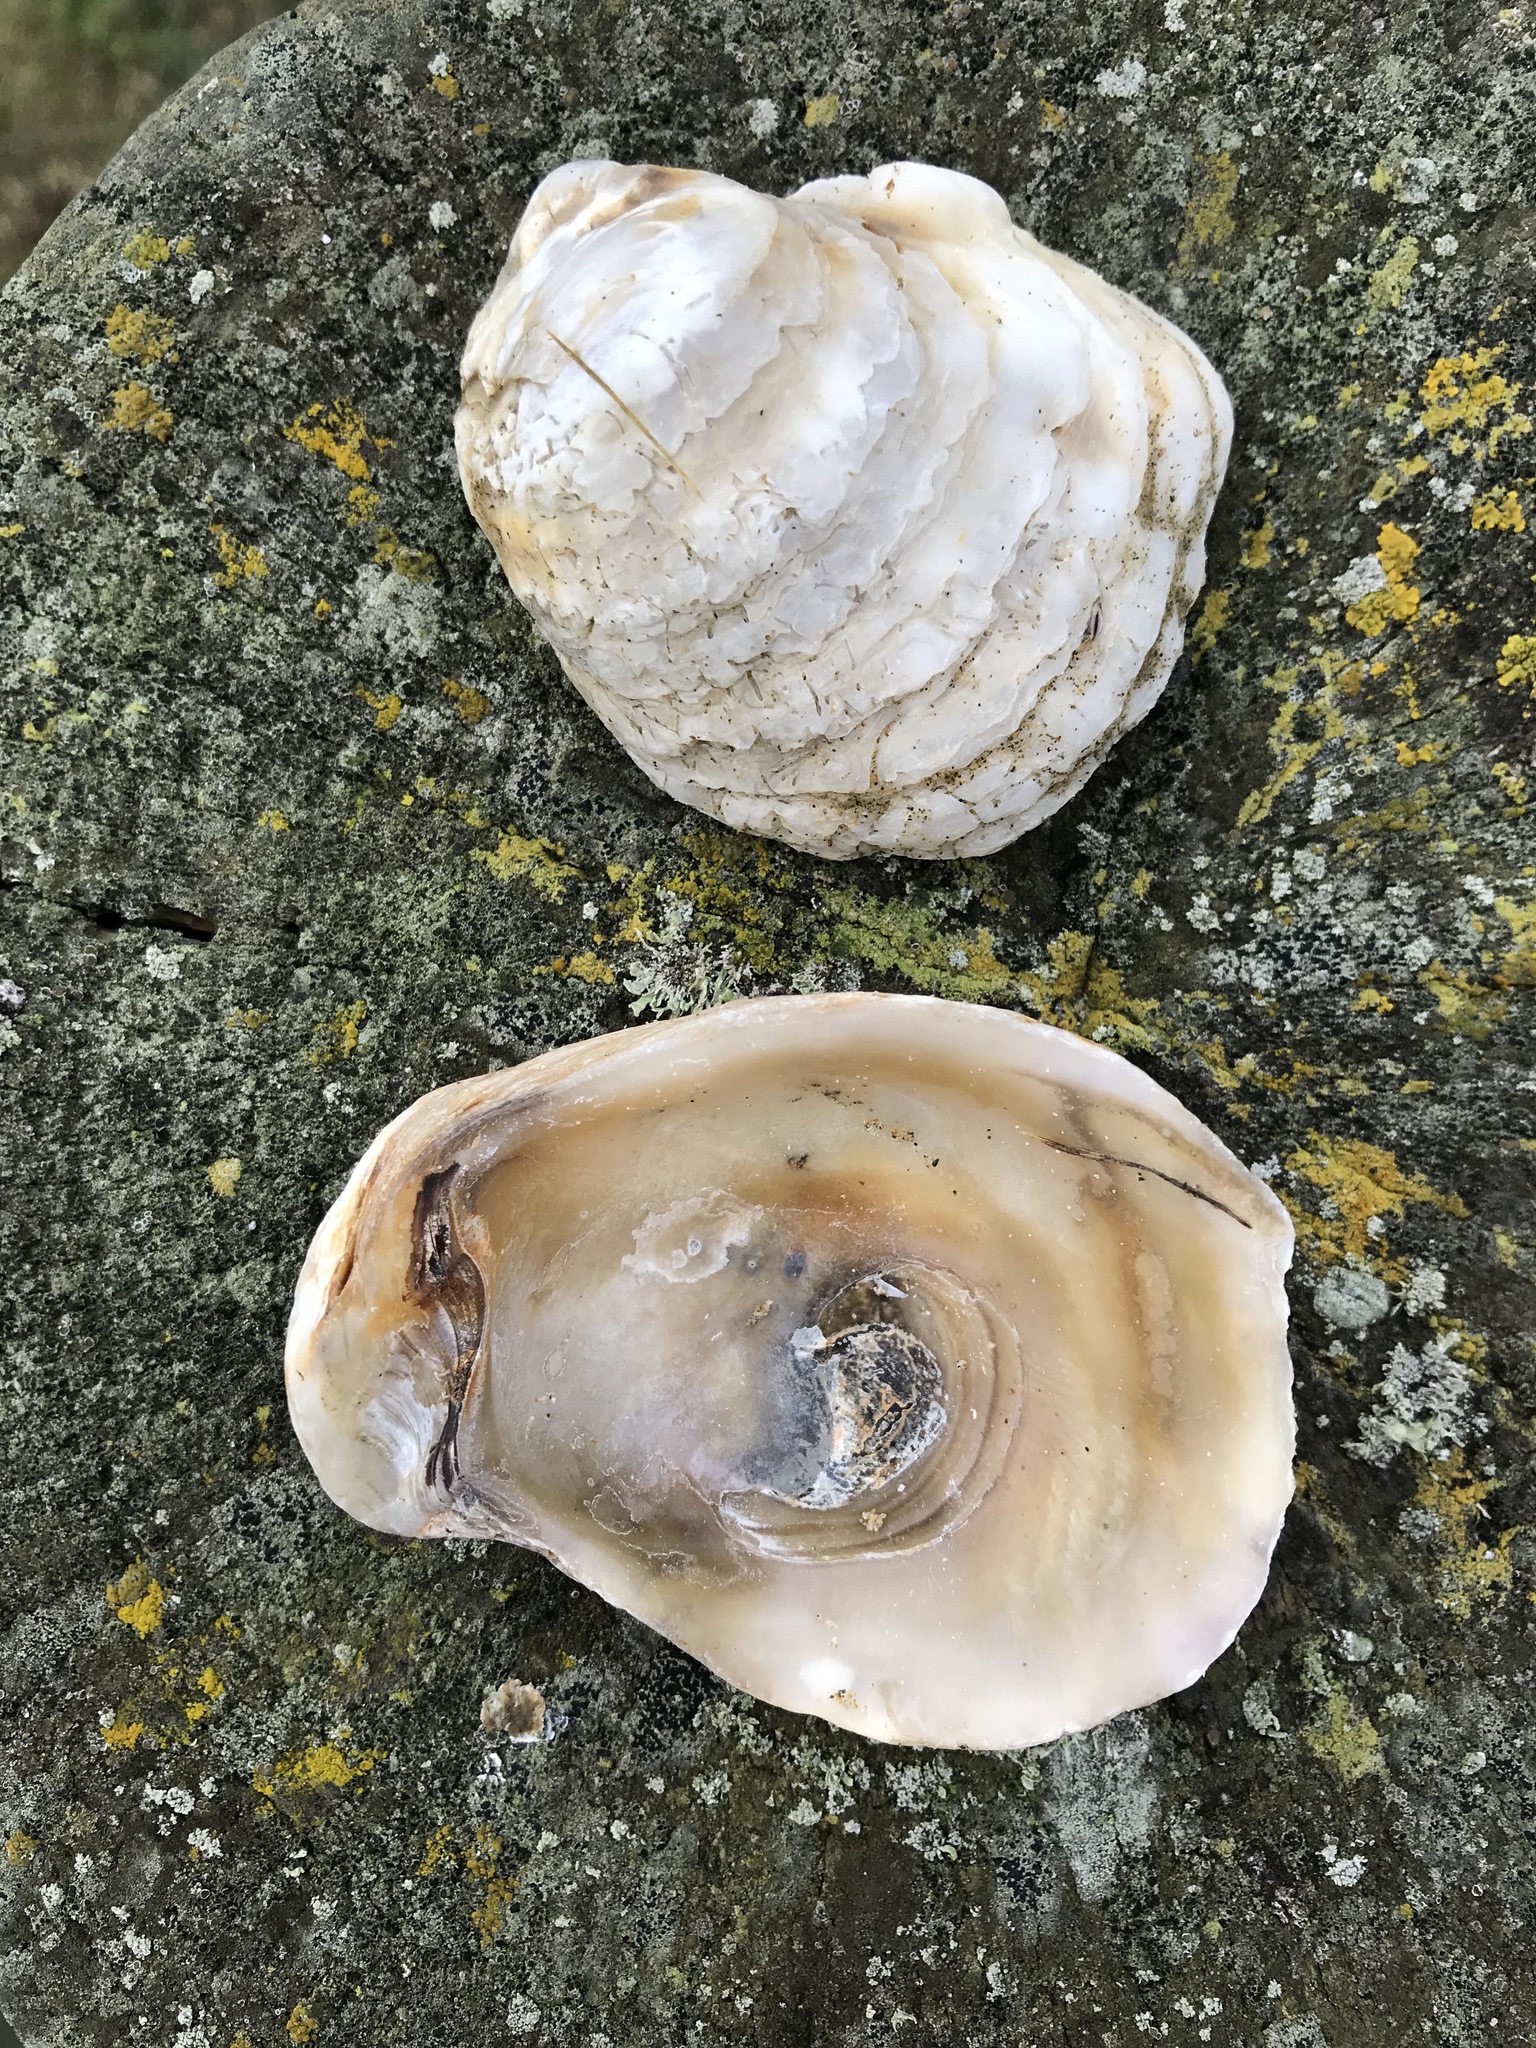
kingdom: Animalia
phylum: Mollusca
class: Bivalvia
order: Ostreida
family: Ostreidae
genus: Ostrea
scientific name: Ostrea chilensis
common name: Chilean oyster
